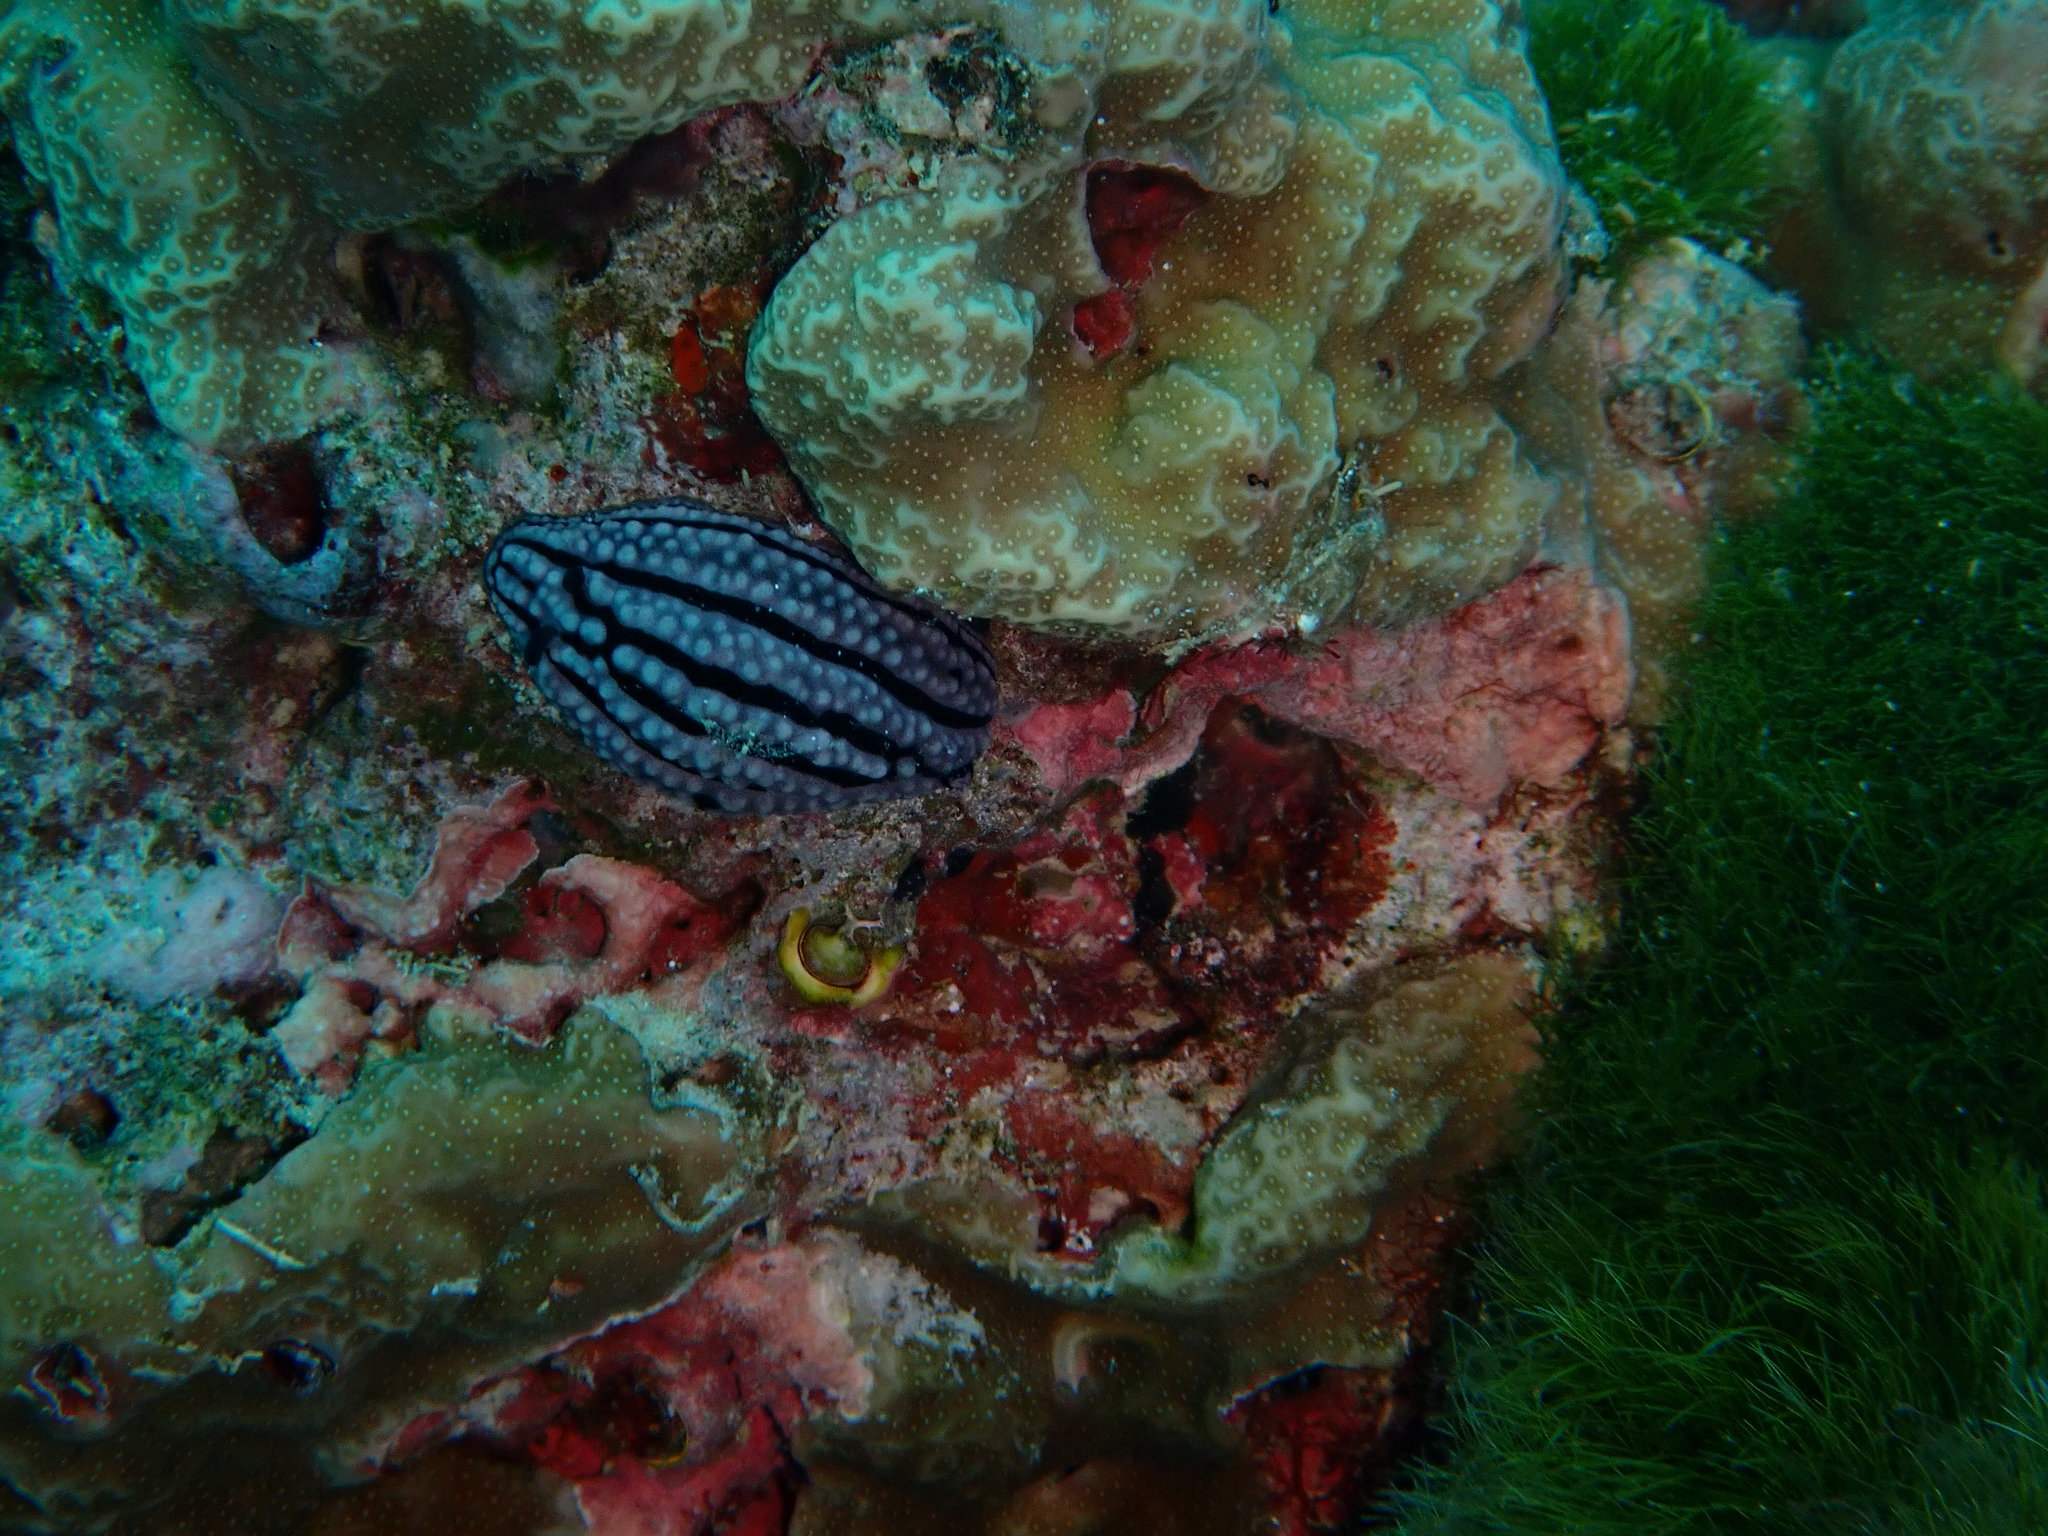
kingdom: Animalia
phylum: Mollusca
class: Gastropoda
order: Nudibranchia
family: Phyllidiidae
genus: Phyllidiella
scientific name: Phyllidiella zeylanica
